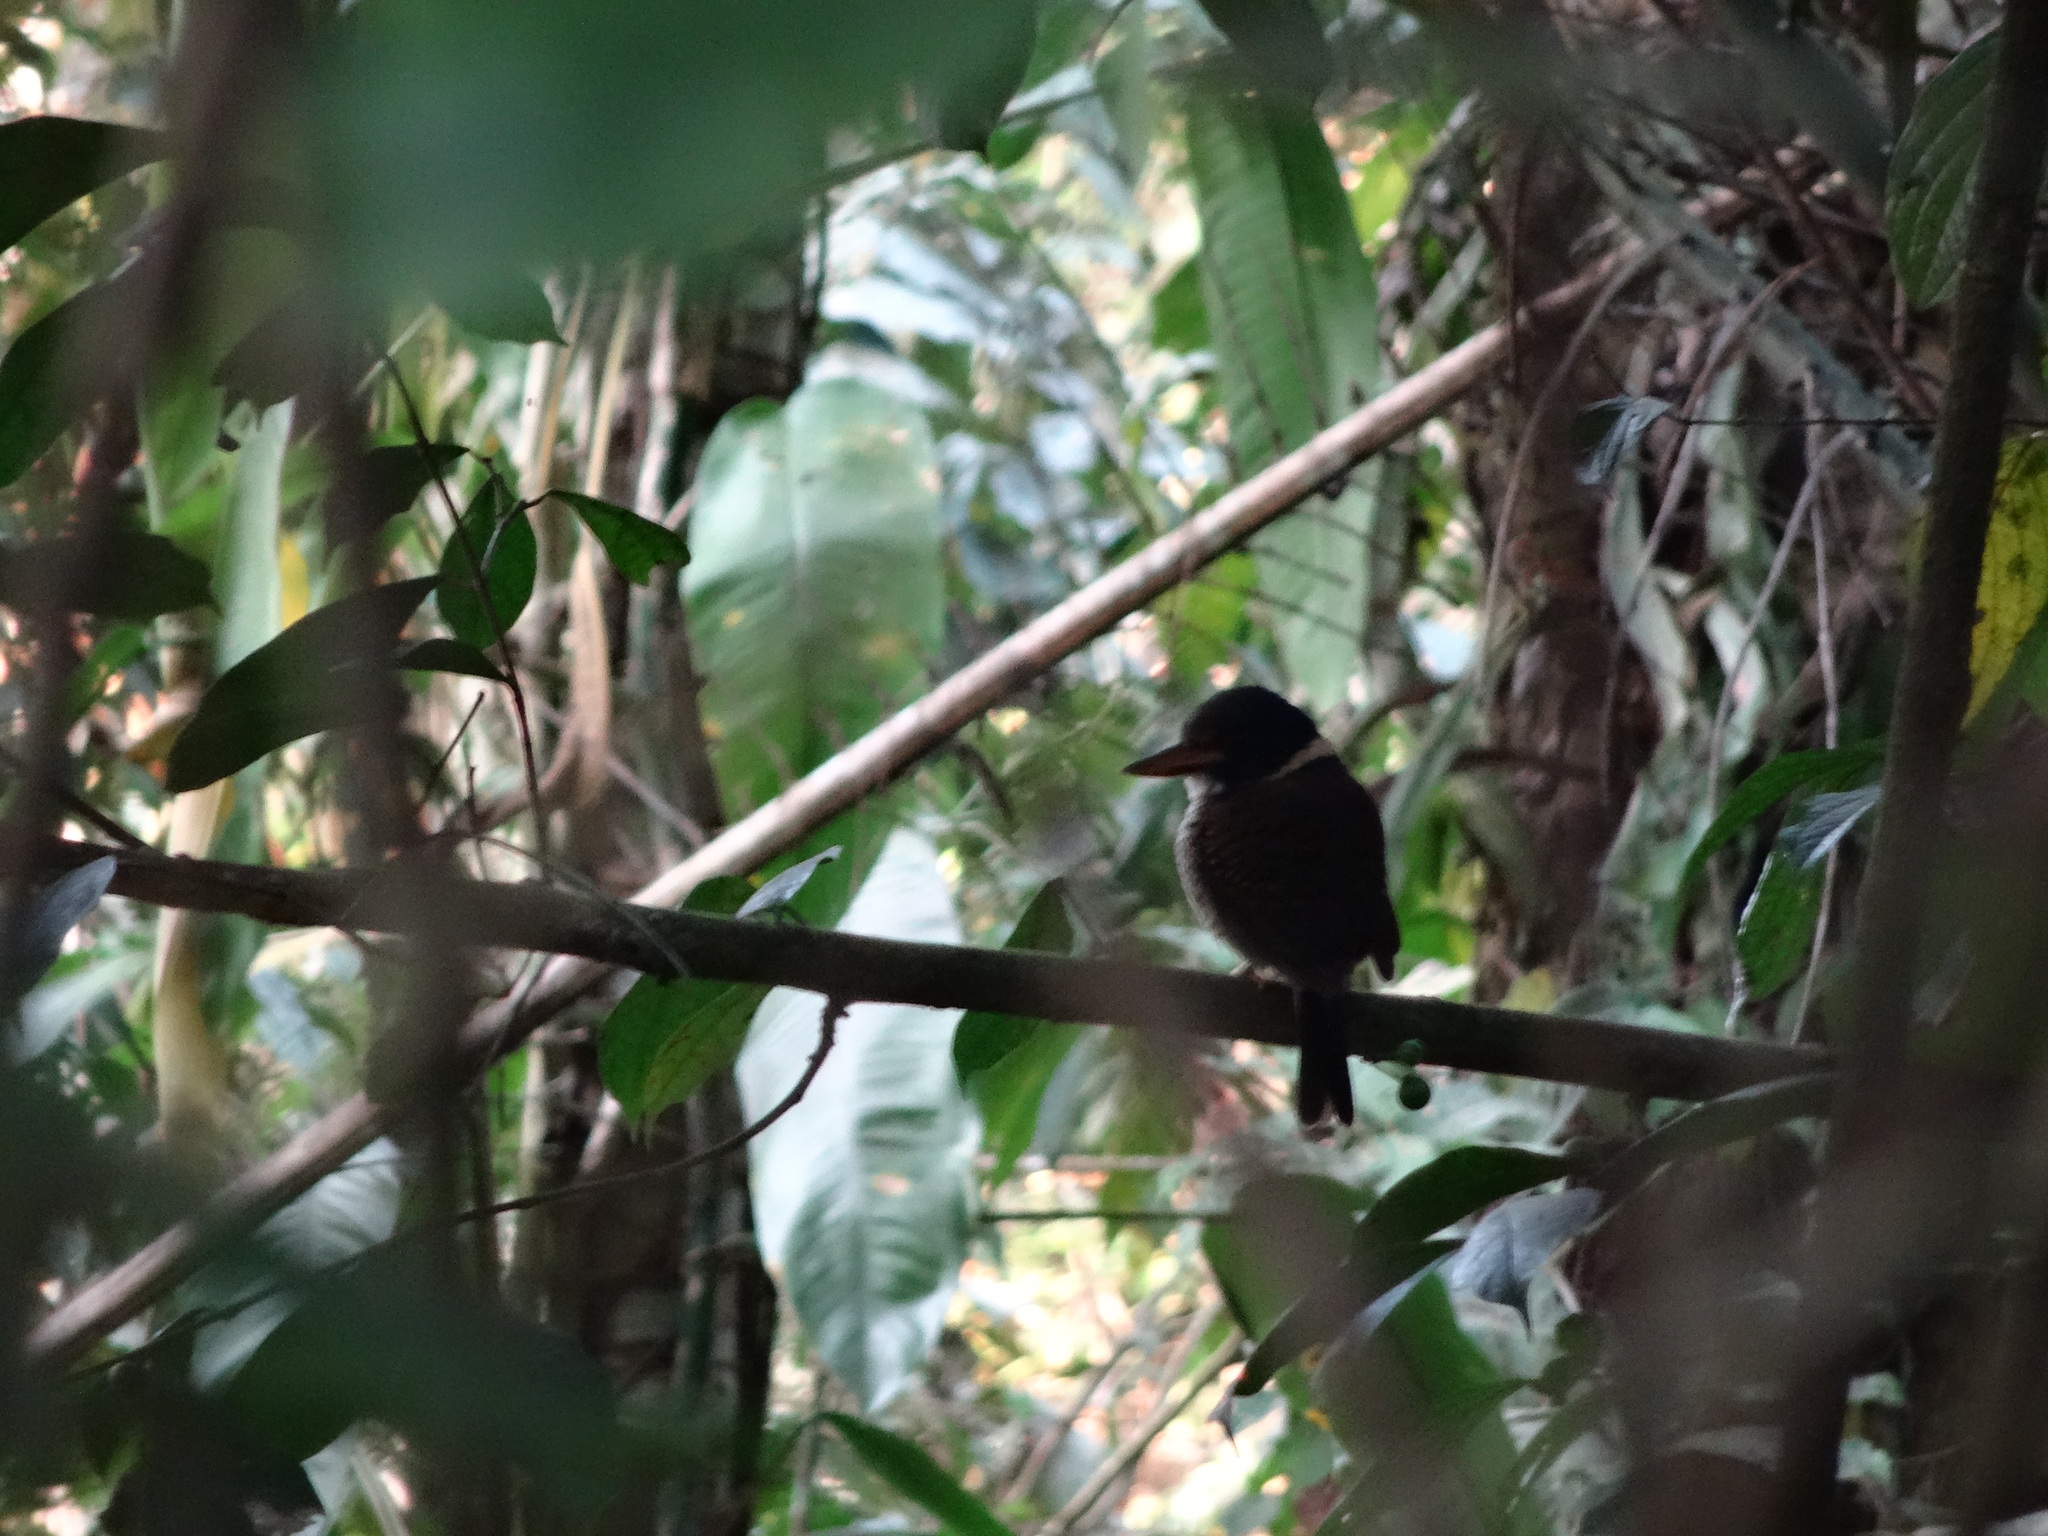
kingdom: Animalia
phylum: Chordata
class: Aves
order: Coraciiformes
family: Alcedinidae
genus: Actenoides
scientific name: Actenoides princeps
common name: Scaly-breasted kingfisher
